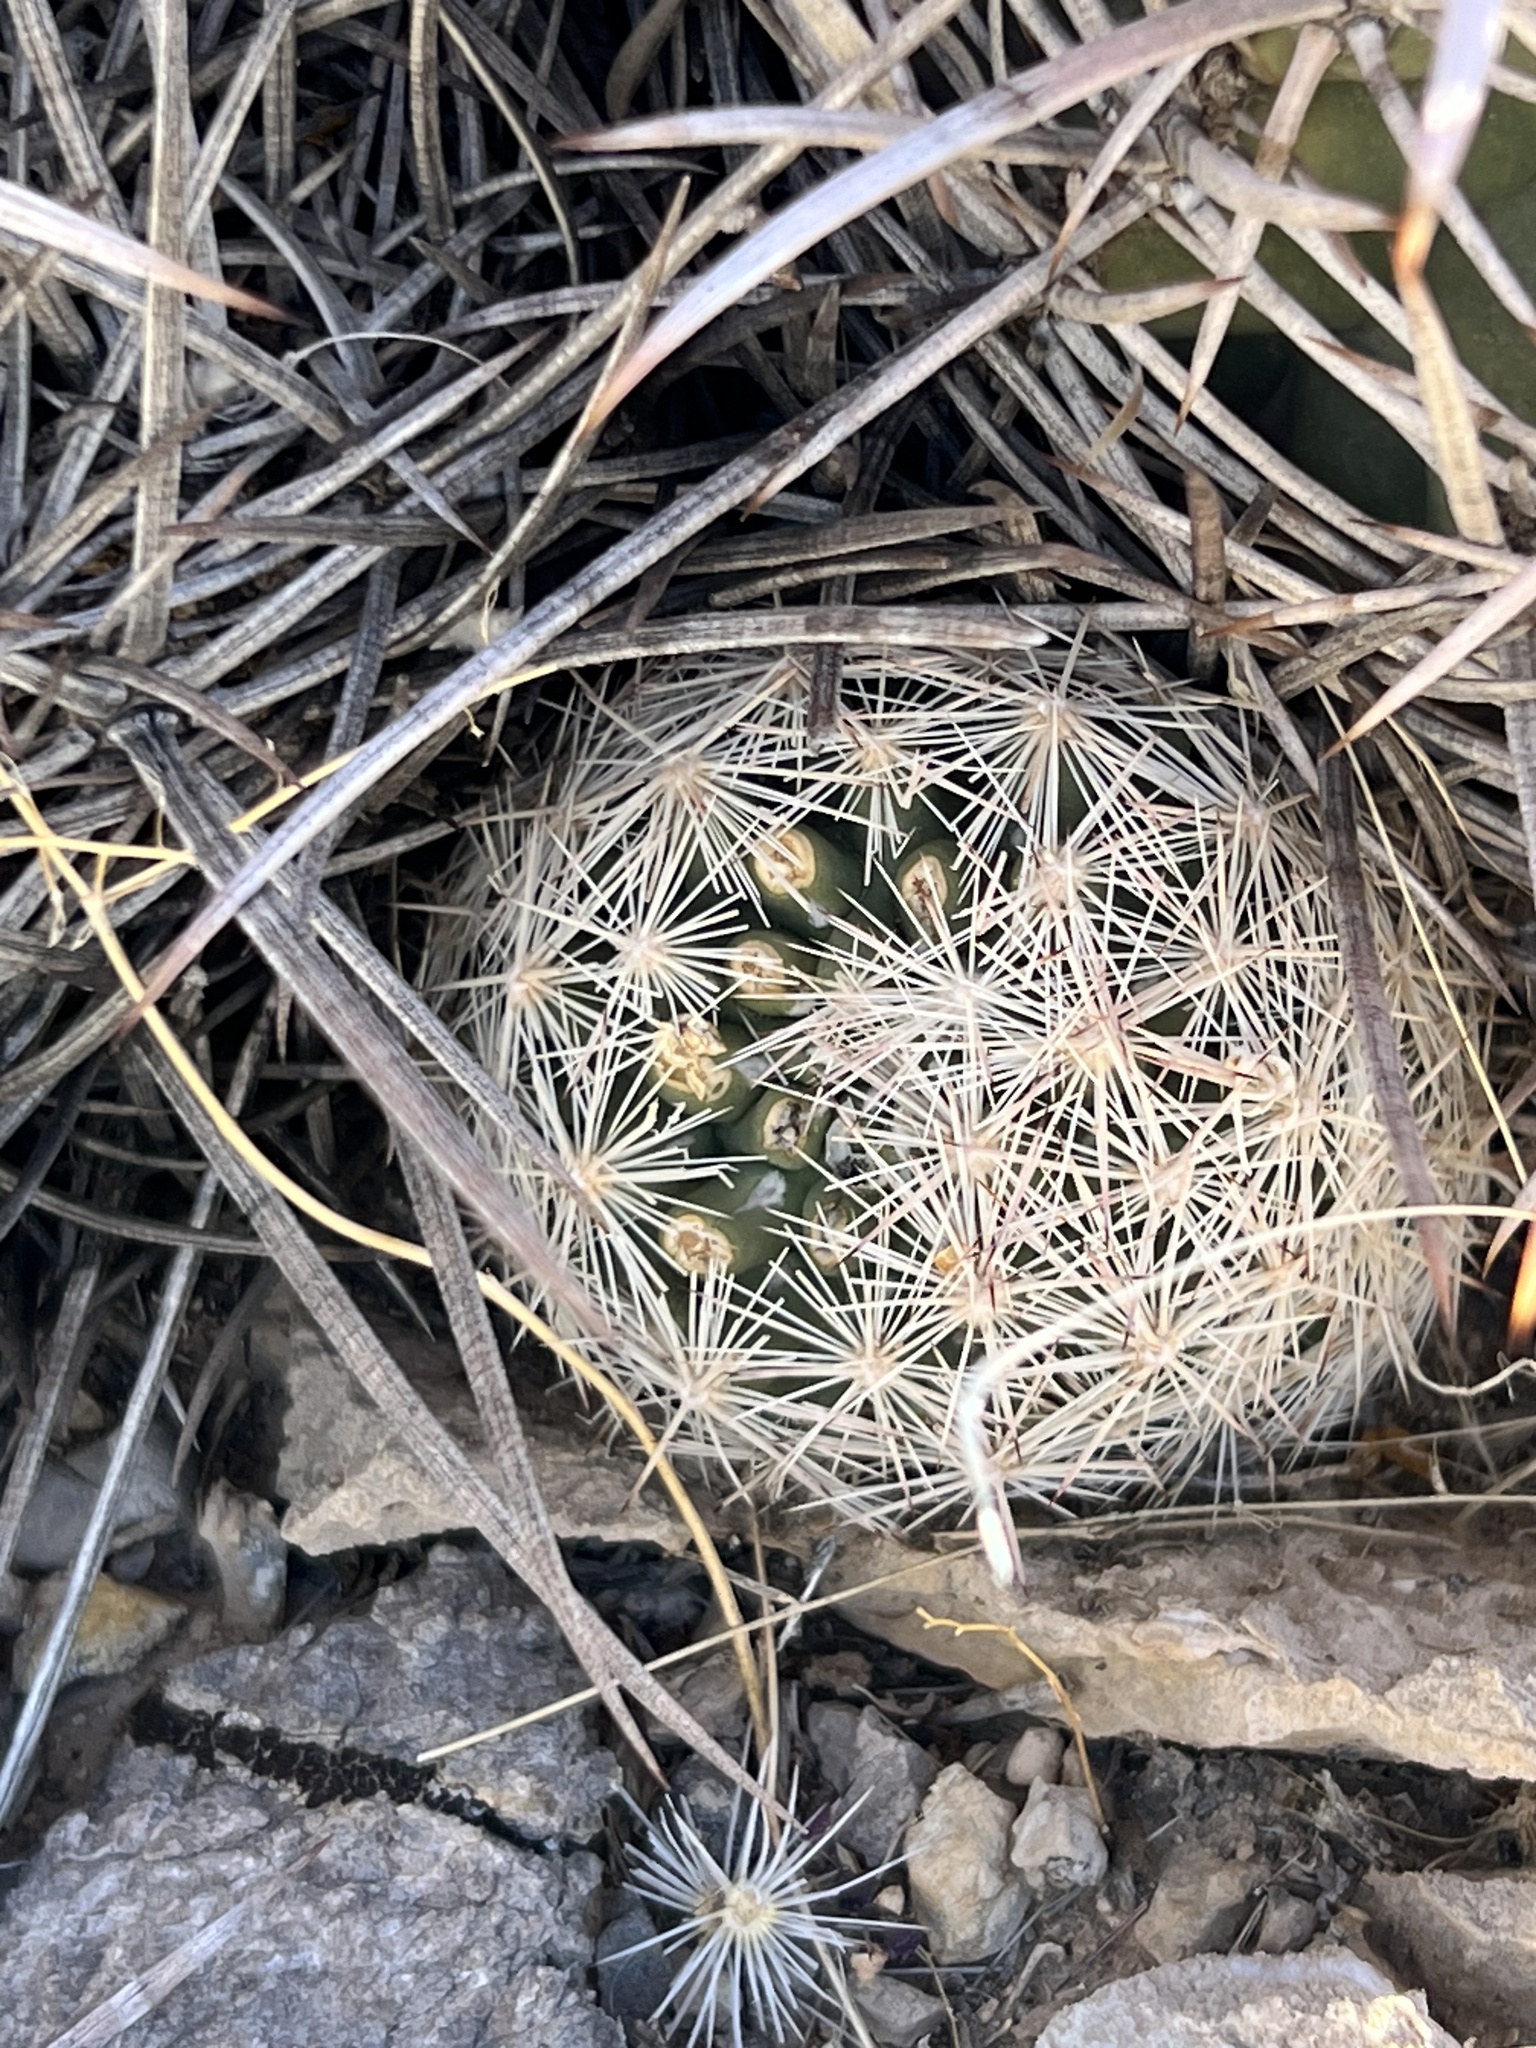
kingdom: Plantae
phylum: Tracheophyta
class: Magnoliopsida
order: Caryophyllales
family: Cactaceae
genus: Pelecyphora
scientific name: Pelecyphora dasyacantha
